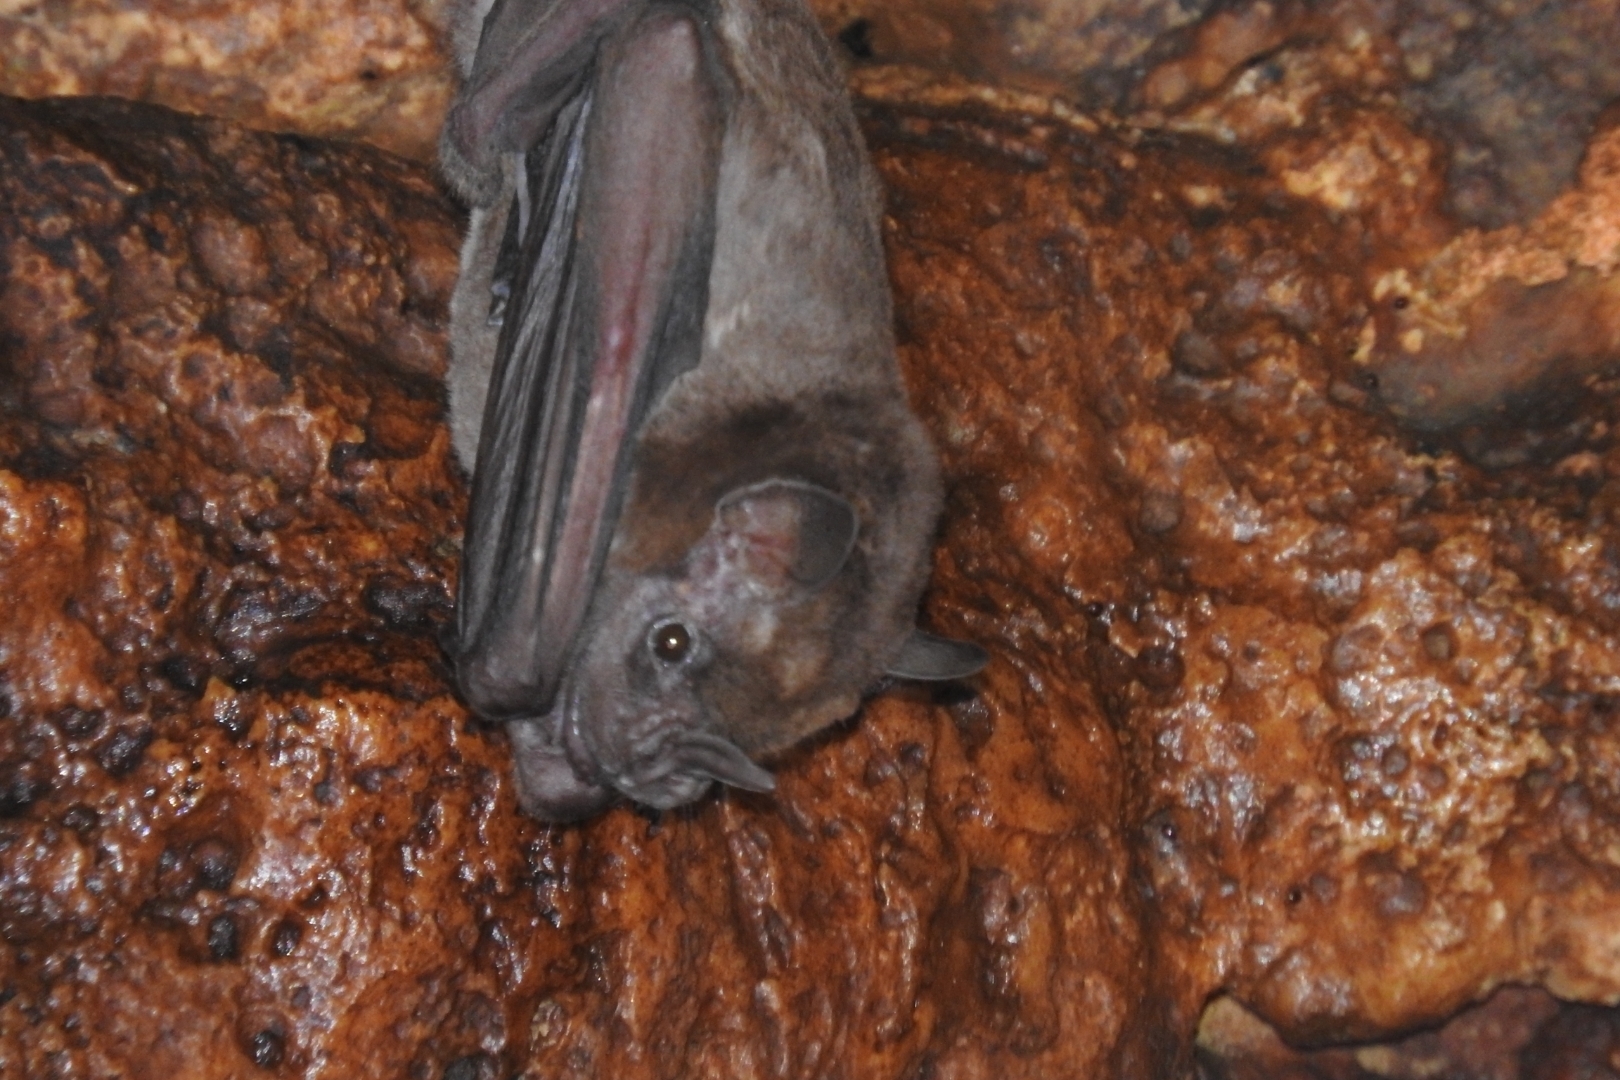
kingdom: Animalia
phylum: Chordata
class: Mammalia
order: Chiroptera
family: Phyllostomidae
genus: Artibeus
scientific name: Artibeus jamaicensis
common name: Jamaican fruit-eating bat
